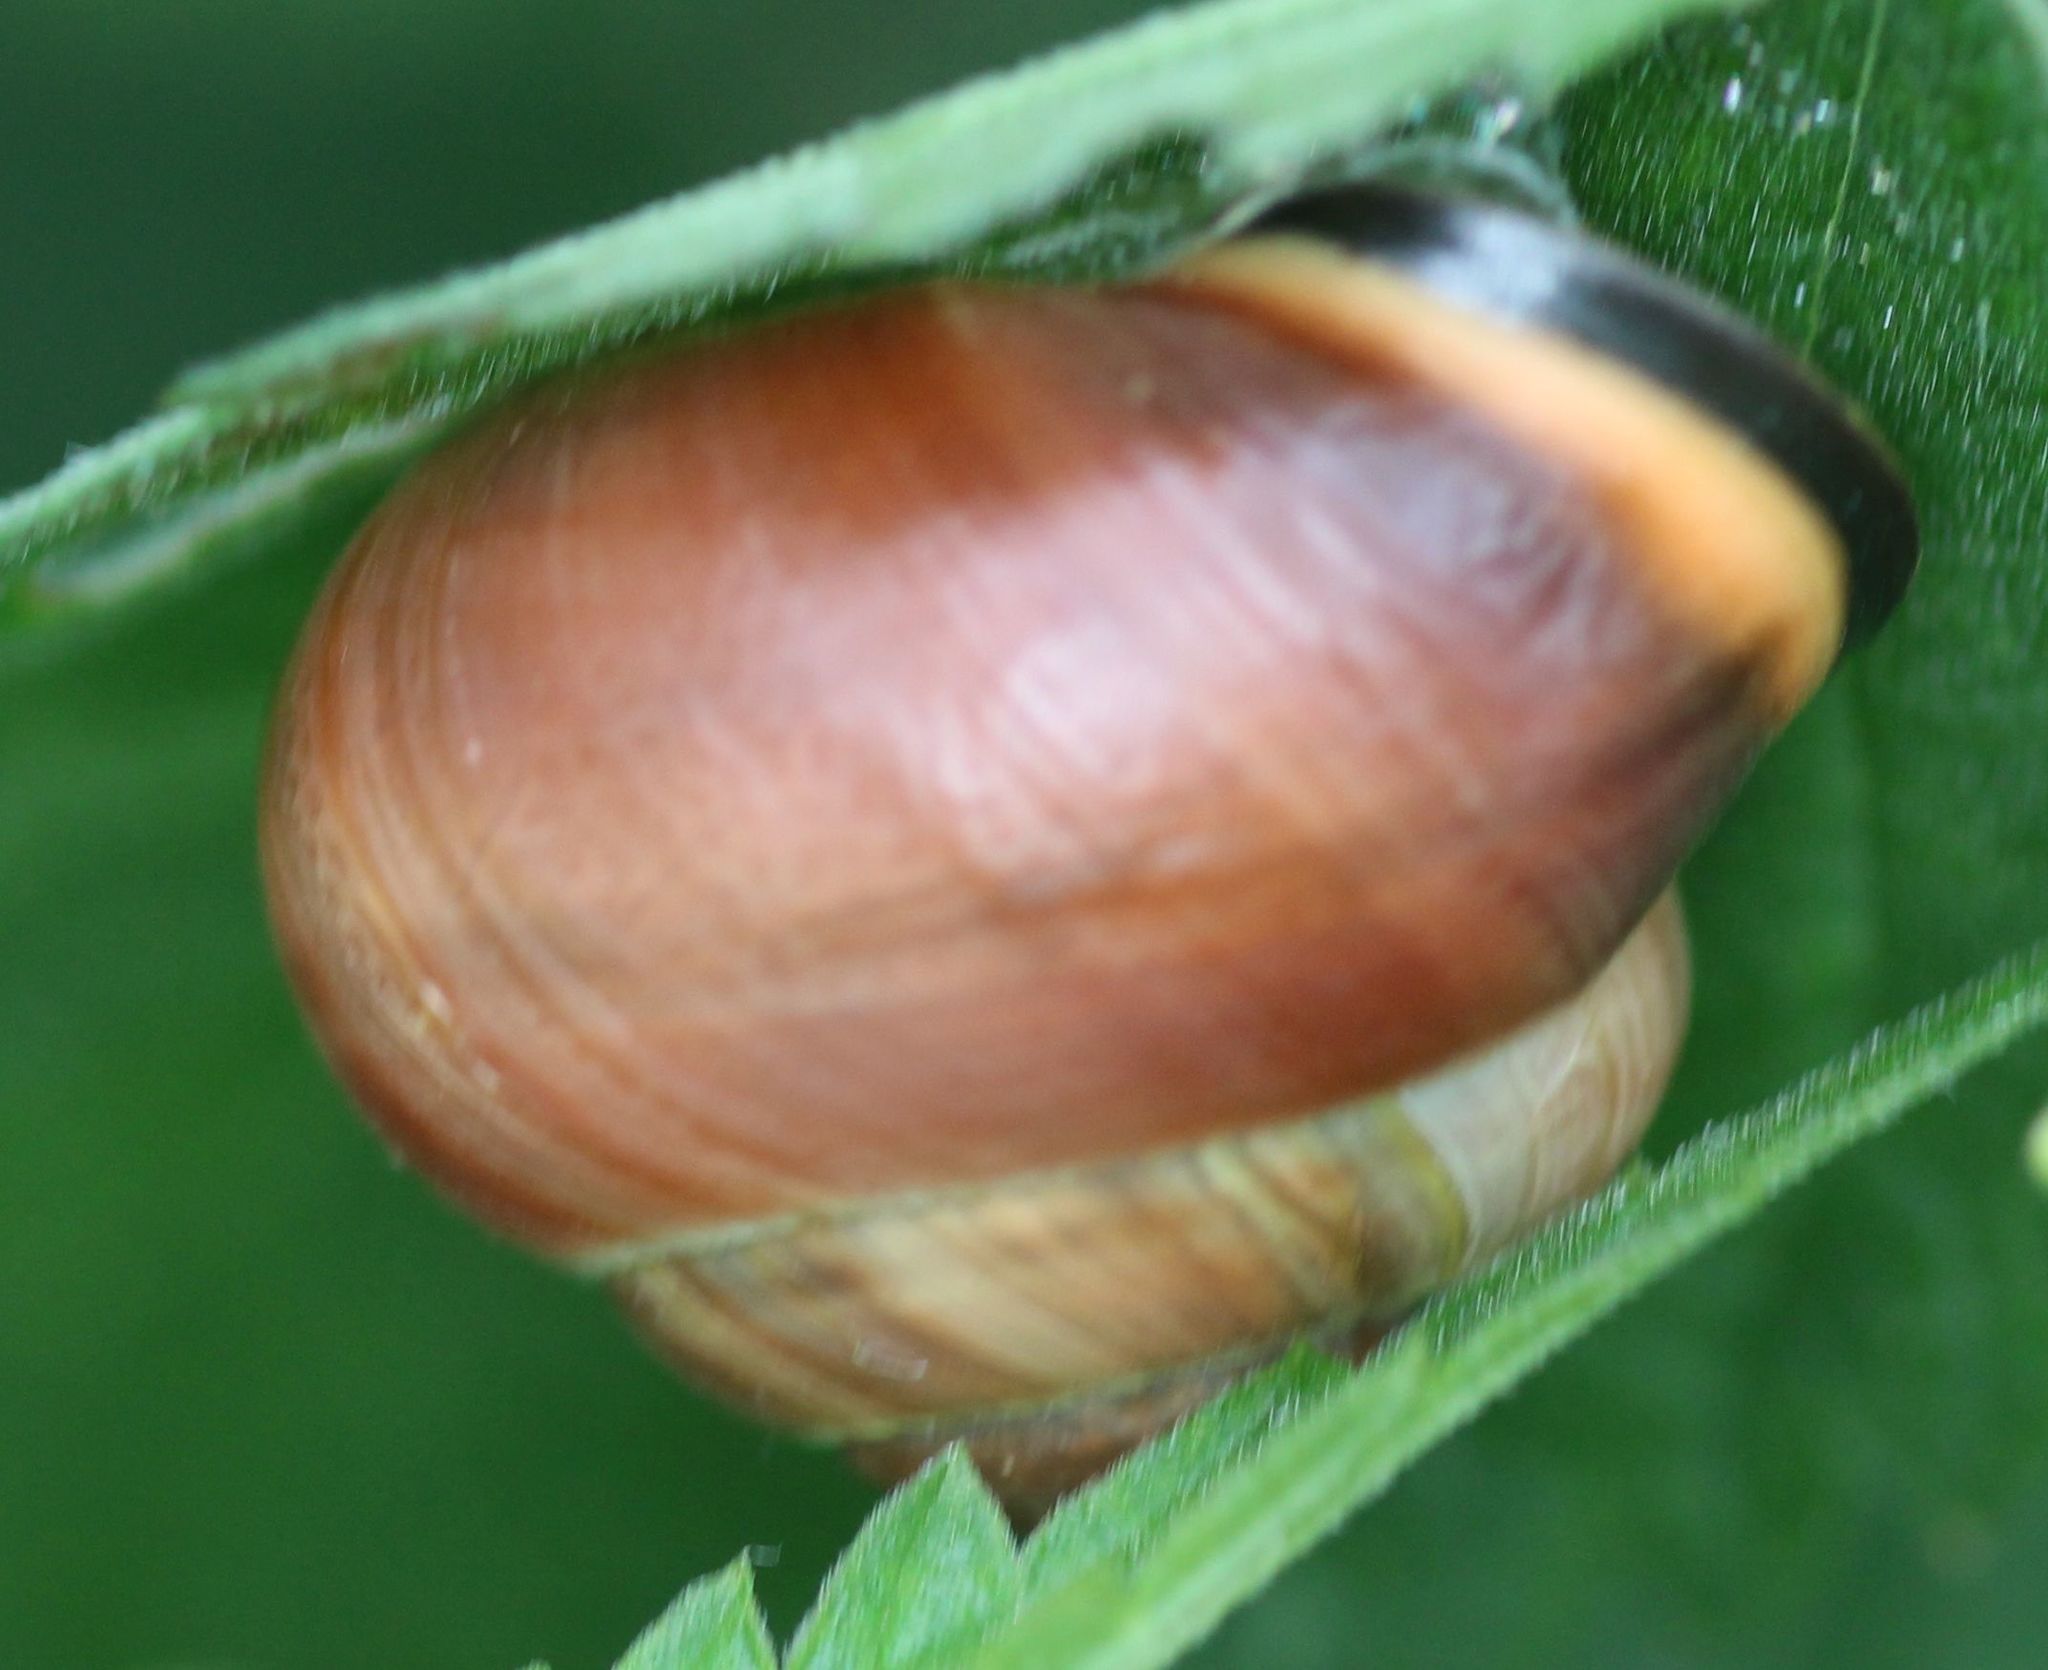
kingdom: Animalia
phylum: Mollusca
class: Gastropoda
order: Stylommatophora
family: Helicidae
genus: Cepaea
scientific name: Cepaea nemoralis
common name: Grovesnail
